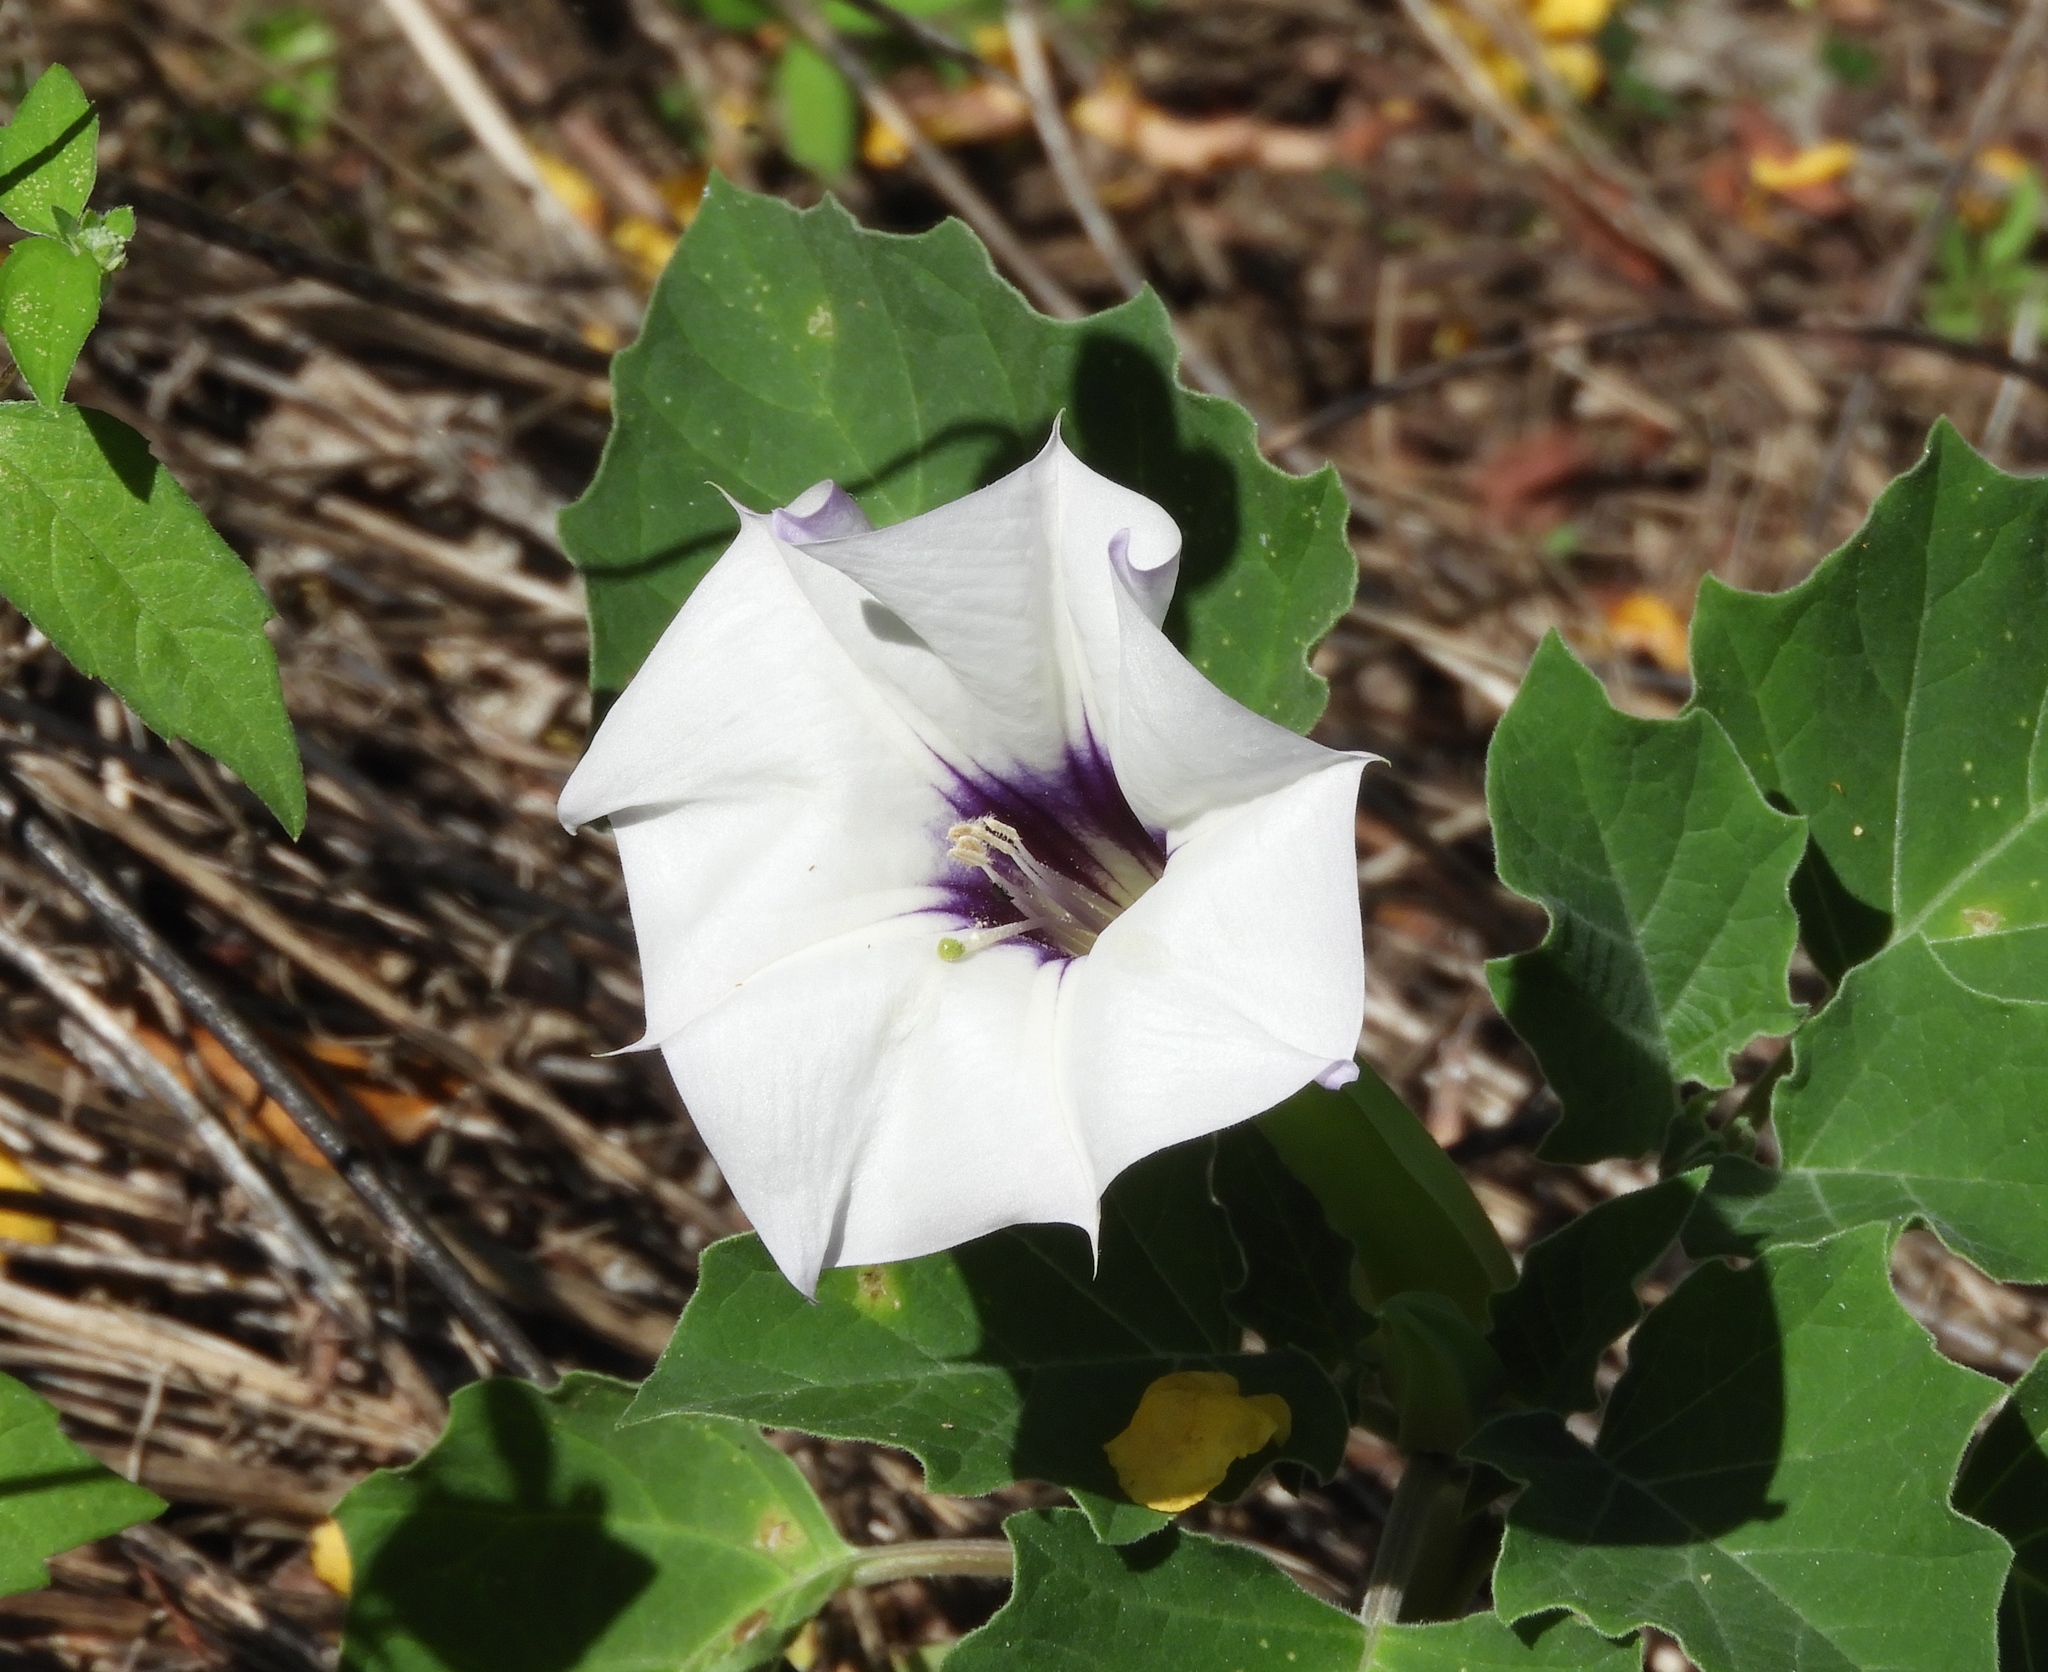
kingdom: Plantae
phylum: Tracheophyta
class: Magnoliopsida
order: Solanales
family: Solanaceae
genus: Datura
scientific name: Datura discolor
